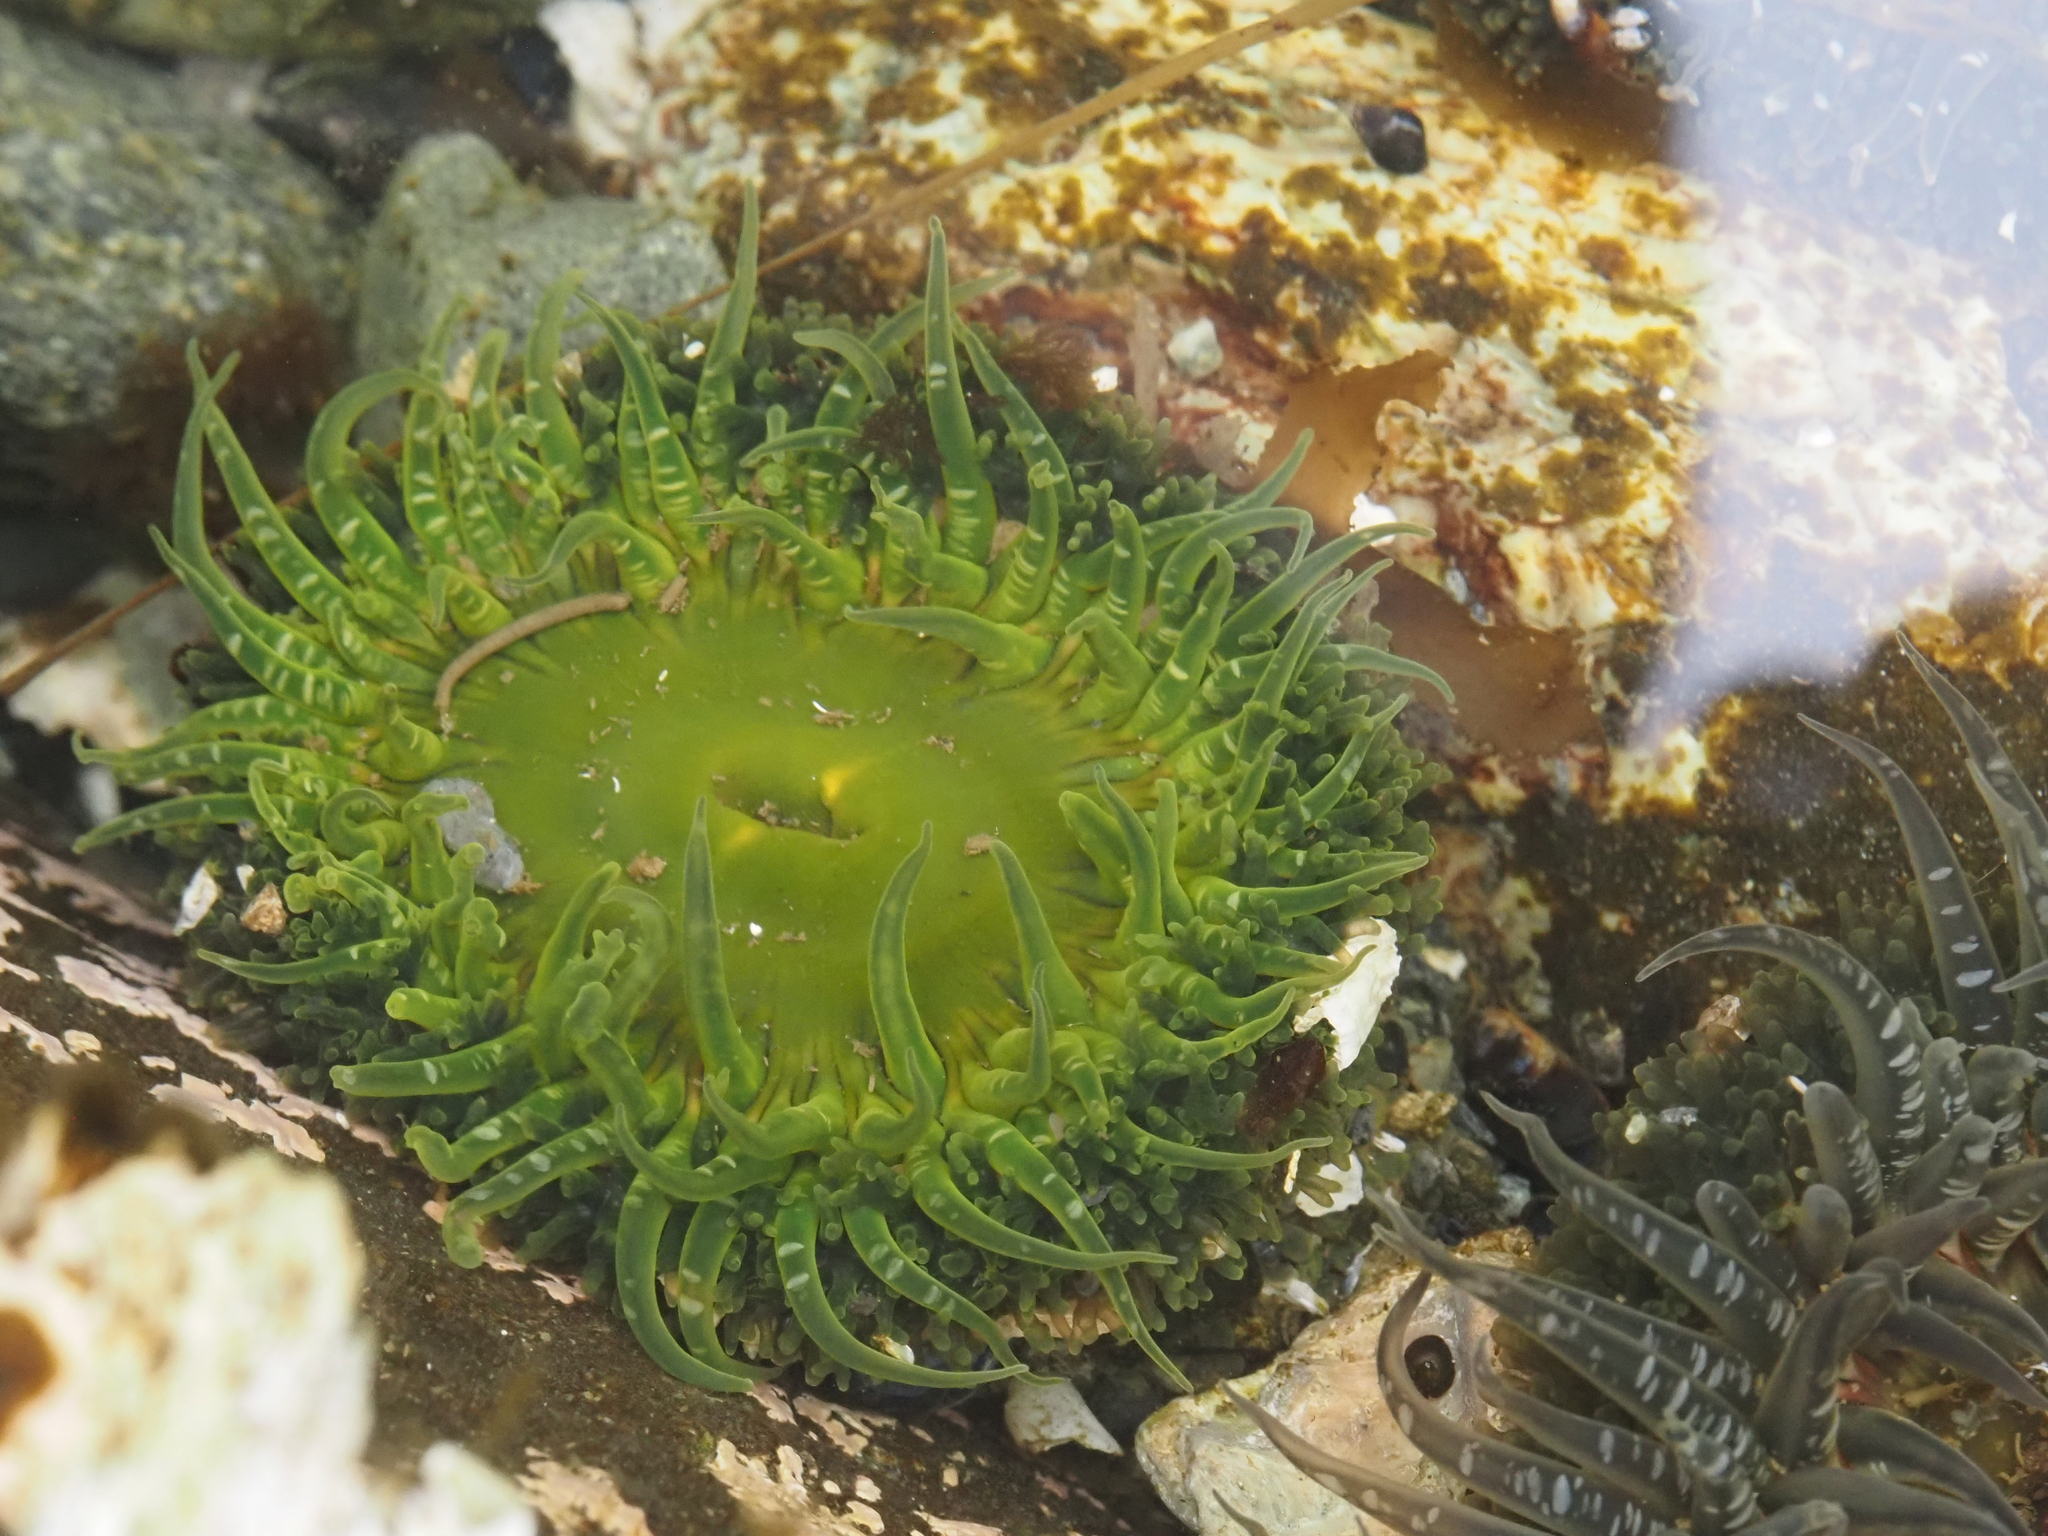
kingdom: Animalia
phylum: Cnidaria
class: Anthozoa
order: Actiniaria
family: Actiniidae
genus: Anthopleura
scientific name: Anthopleura artemisia
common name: Buried sea anemone
